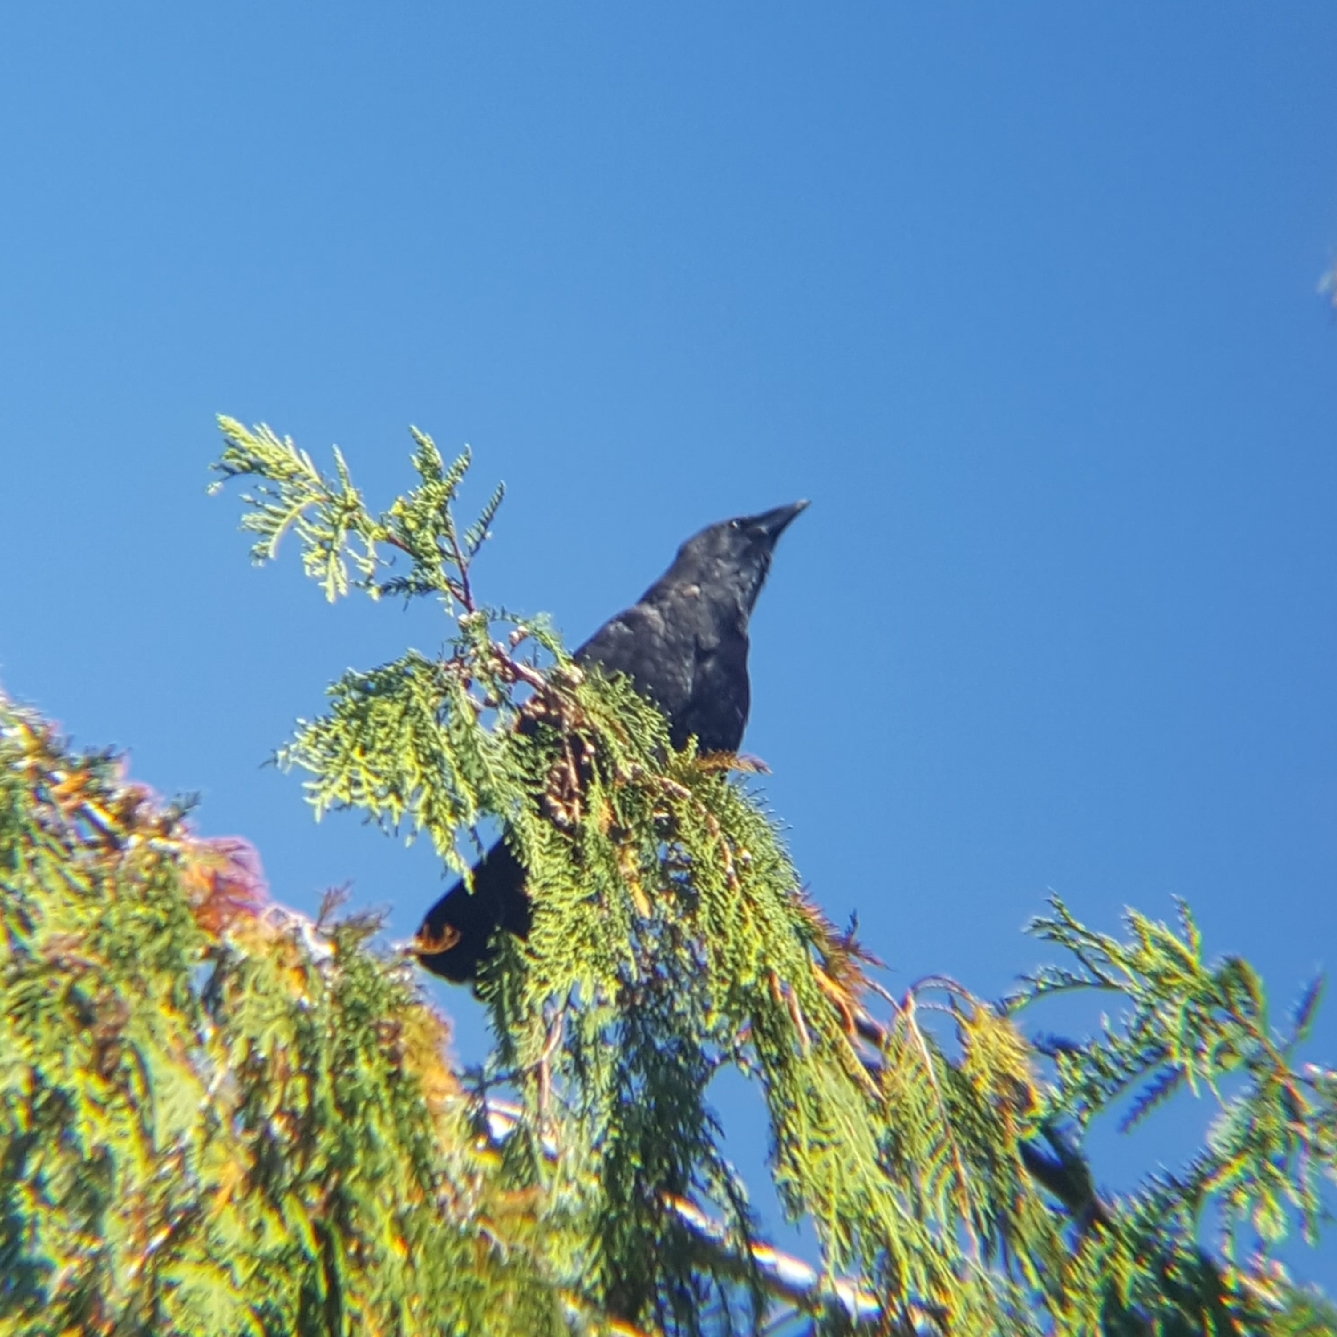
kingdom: Animalia
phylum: Chordata
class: Aves
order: Passeriformes
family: Corvidae
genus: Corvus
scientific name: Corvus brachyrhynchos
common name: American crow
